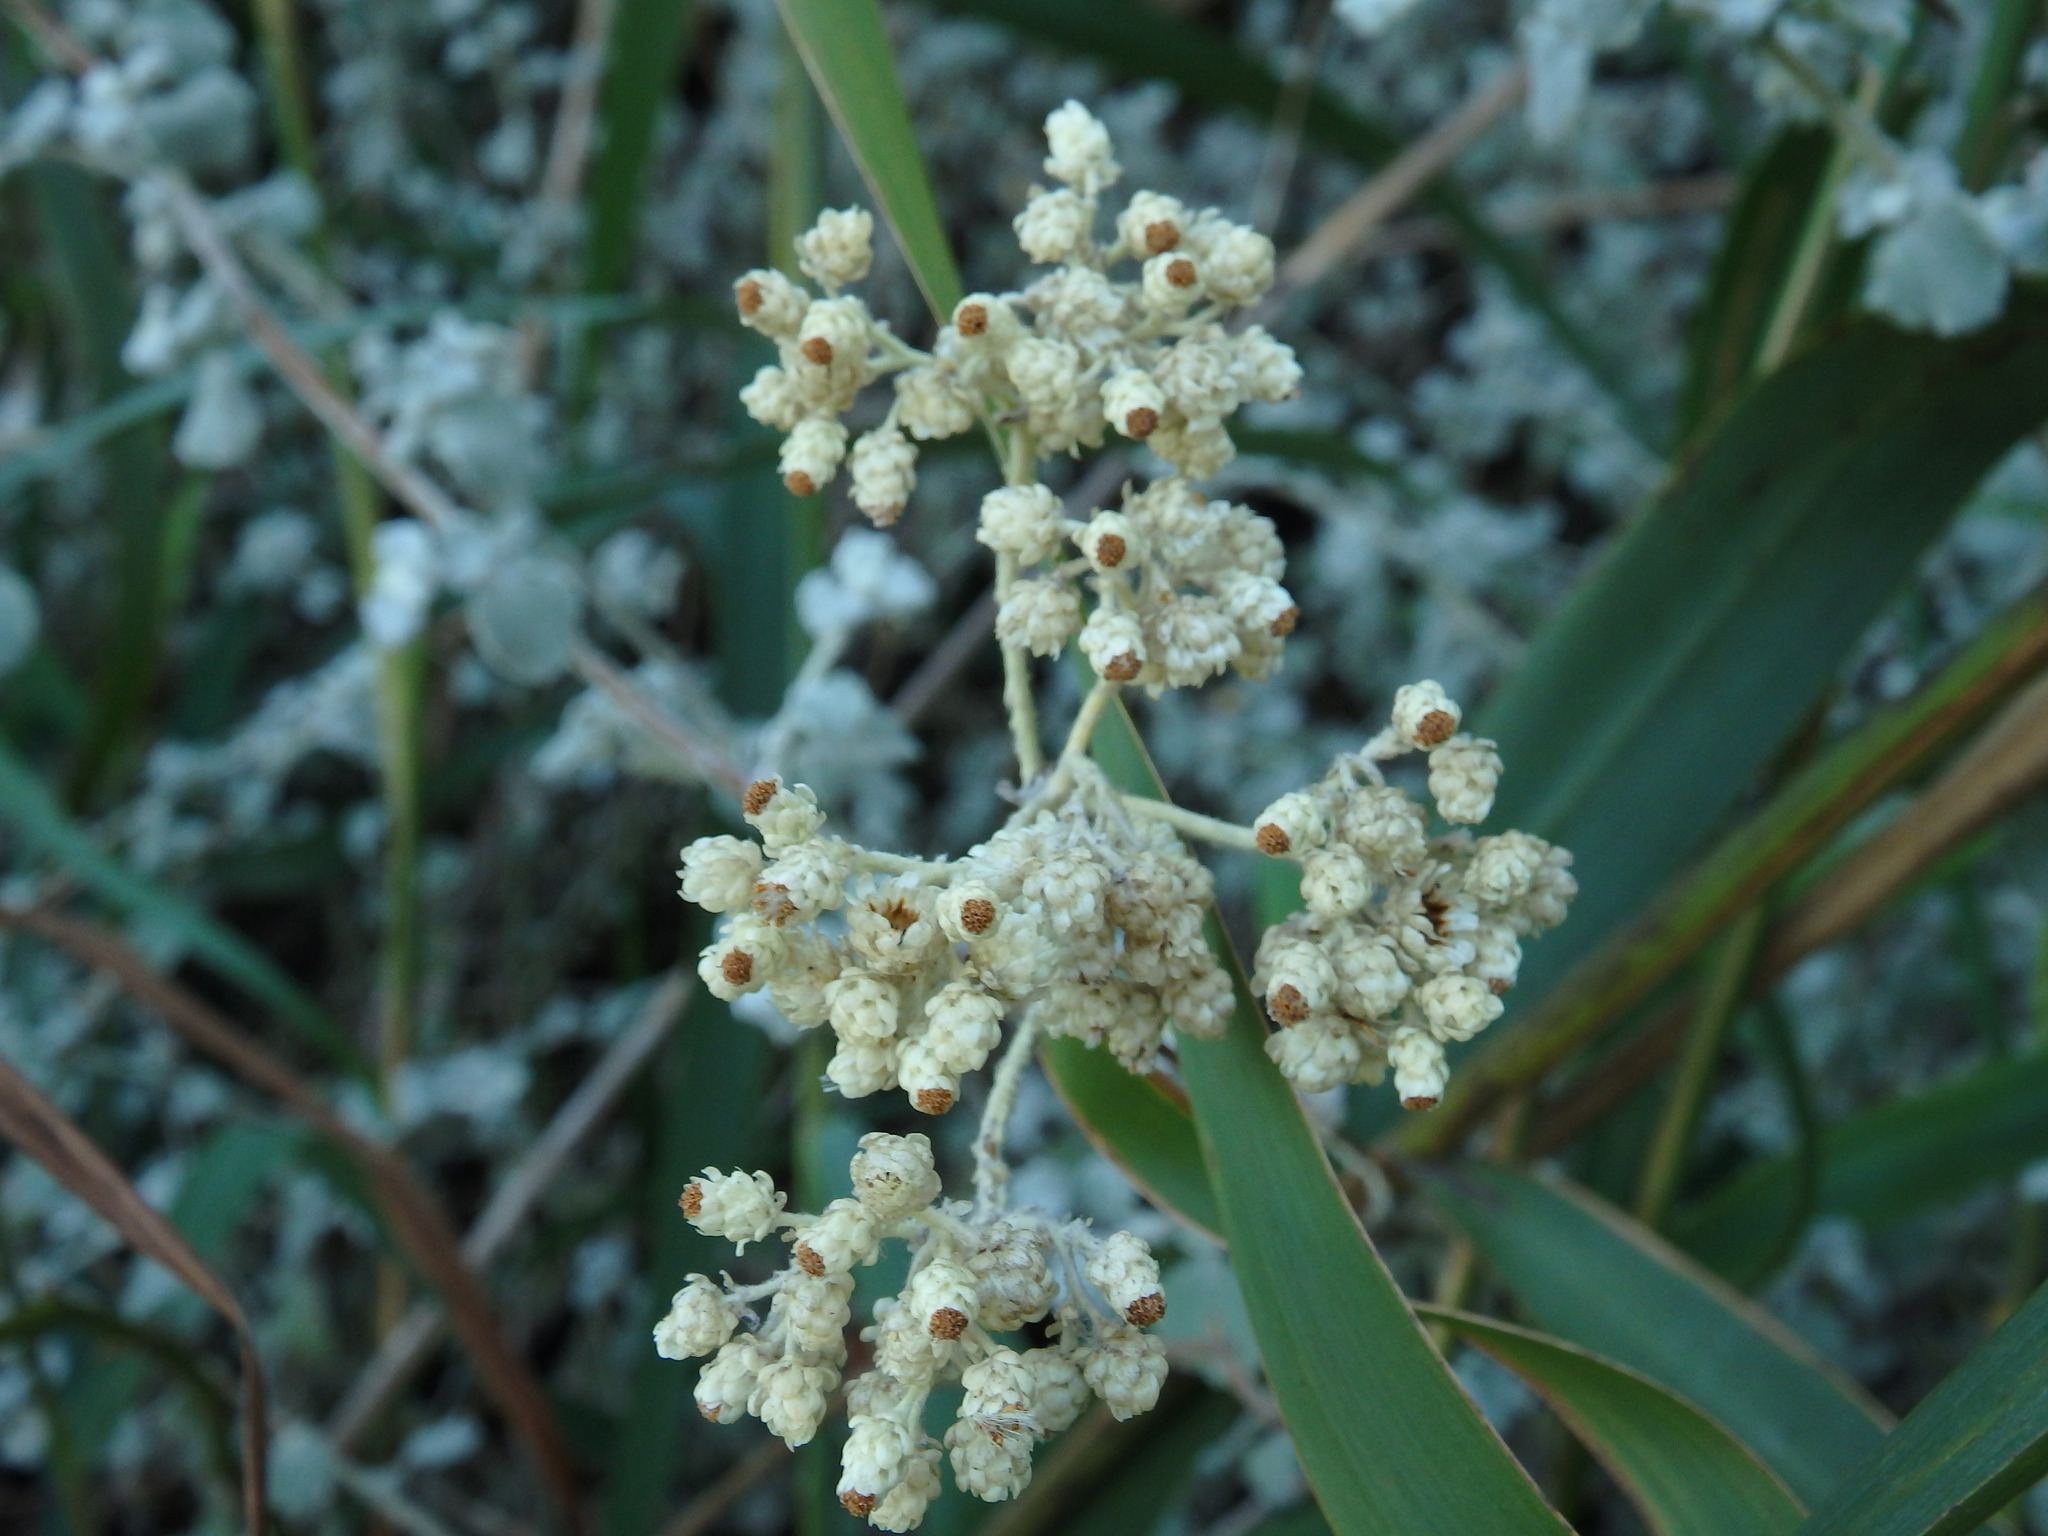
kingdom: Plantae
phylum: Tracheophyta
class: Magnoliopsida
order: Asterales
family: Asteraceae
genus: Helichrysum
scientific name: Helichrysum petiolare
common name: Licorice-plant
